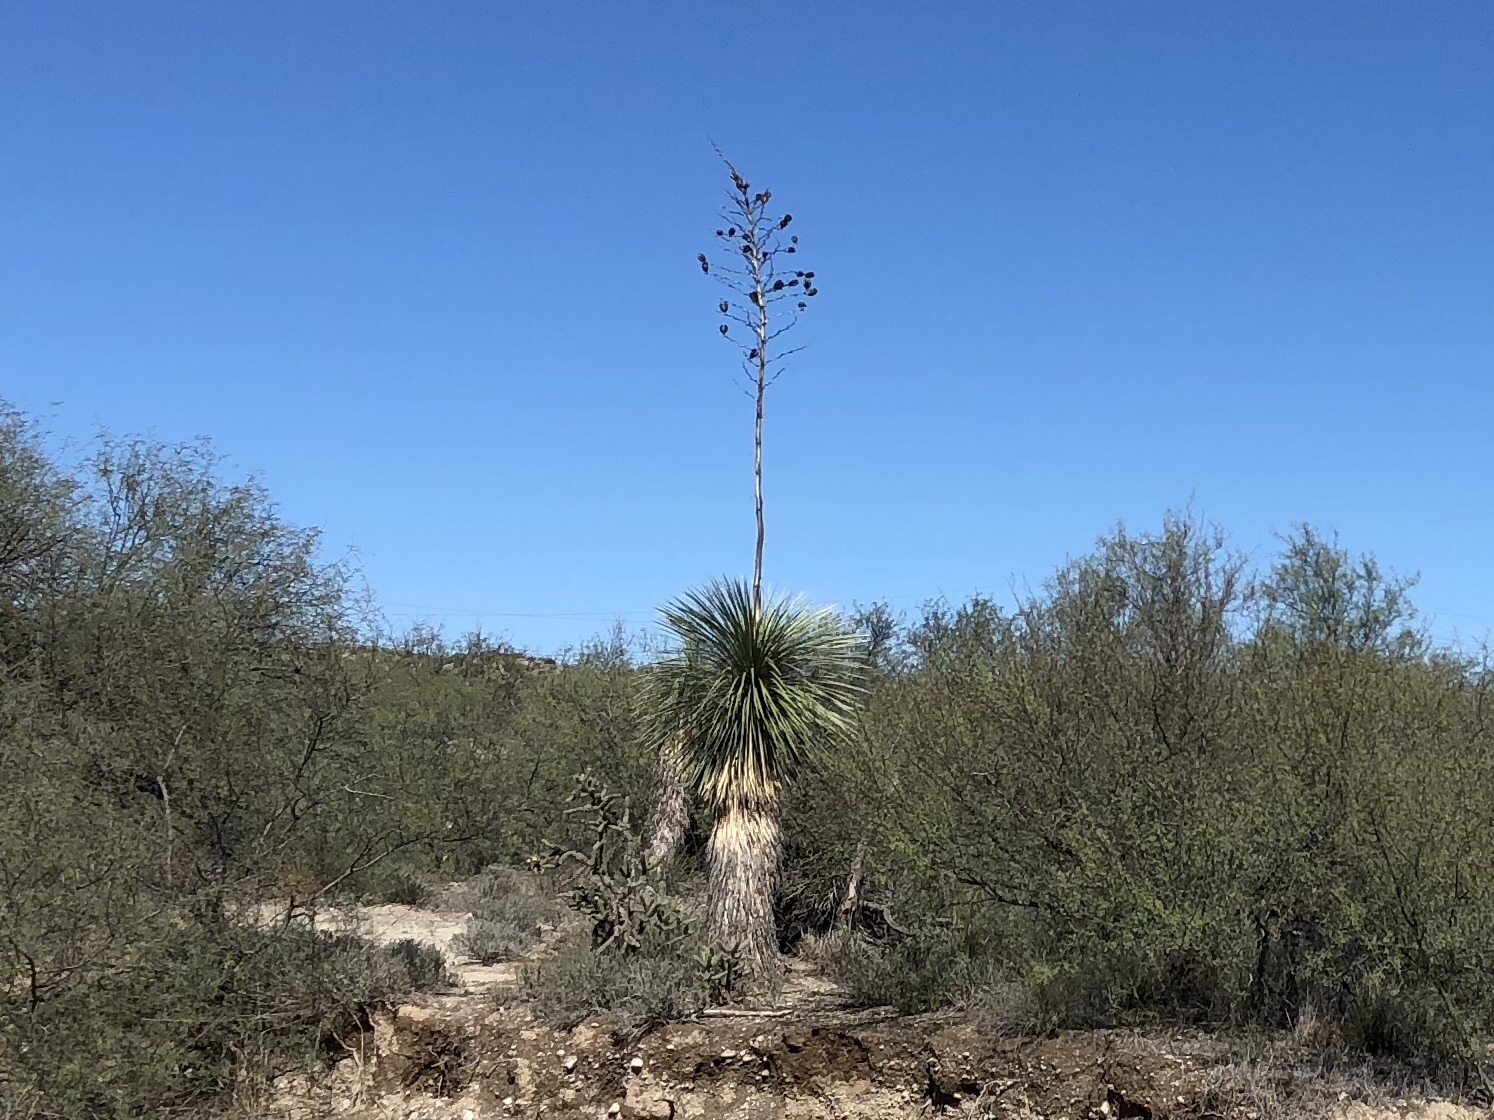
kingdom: Plantae
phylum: Tracheophyta
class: Liliopsida
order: Asparagales
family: Asparagaceae
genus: Yucca
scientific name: Yucca elata
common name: Palmella
